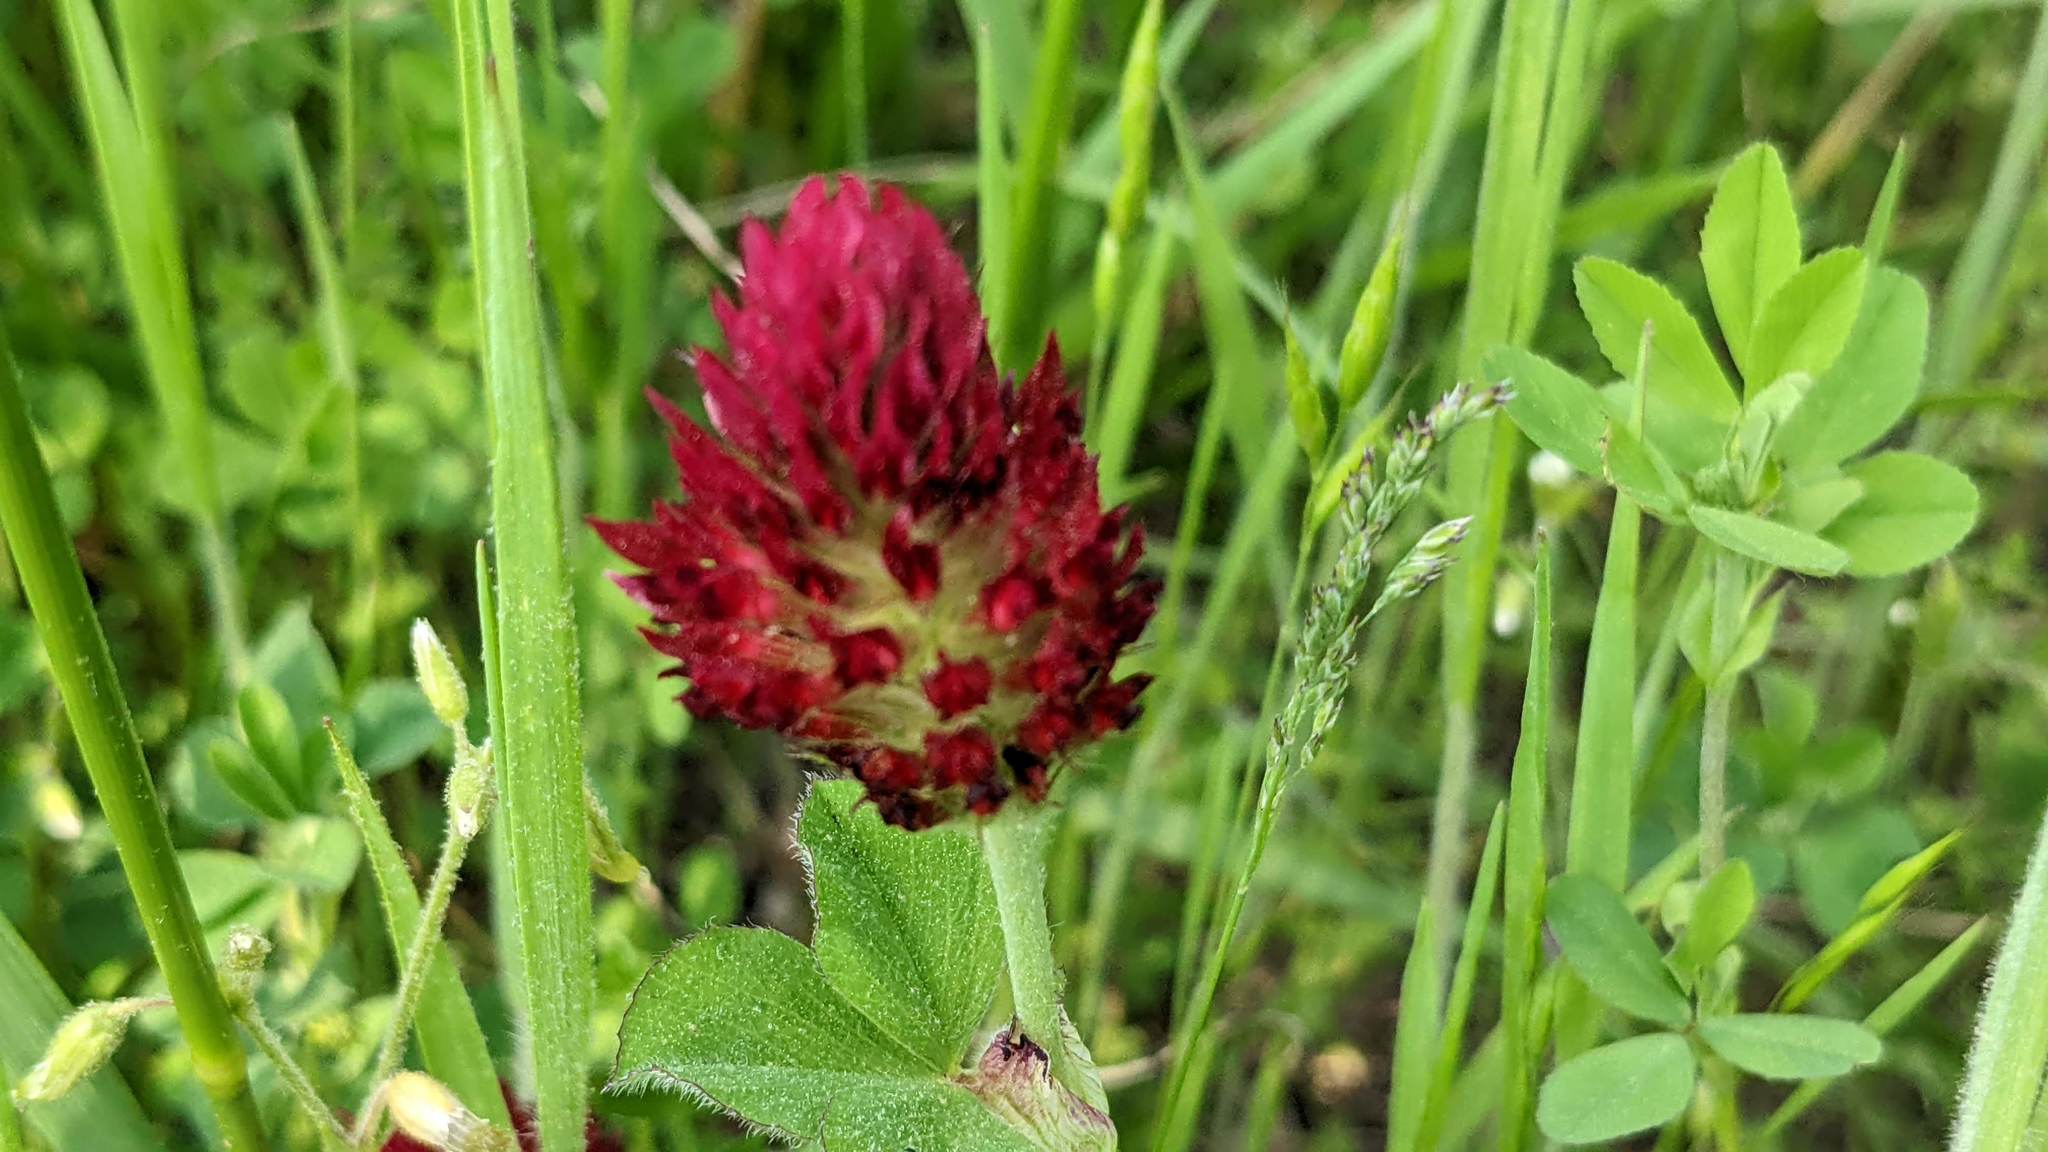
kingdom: Plantae
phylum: Tracheophyta
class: Magnoliopsida
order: Fabales
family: Fabaceae
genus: Trifolium
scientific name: Trifolium incarnatum
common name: Crimson clover
